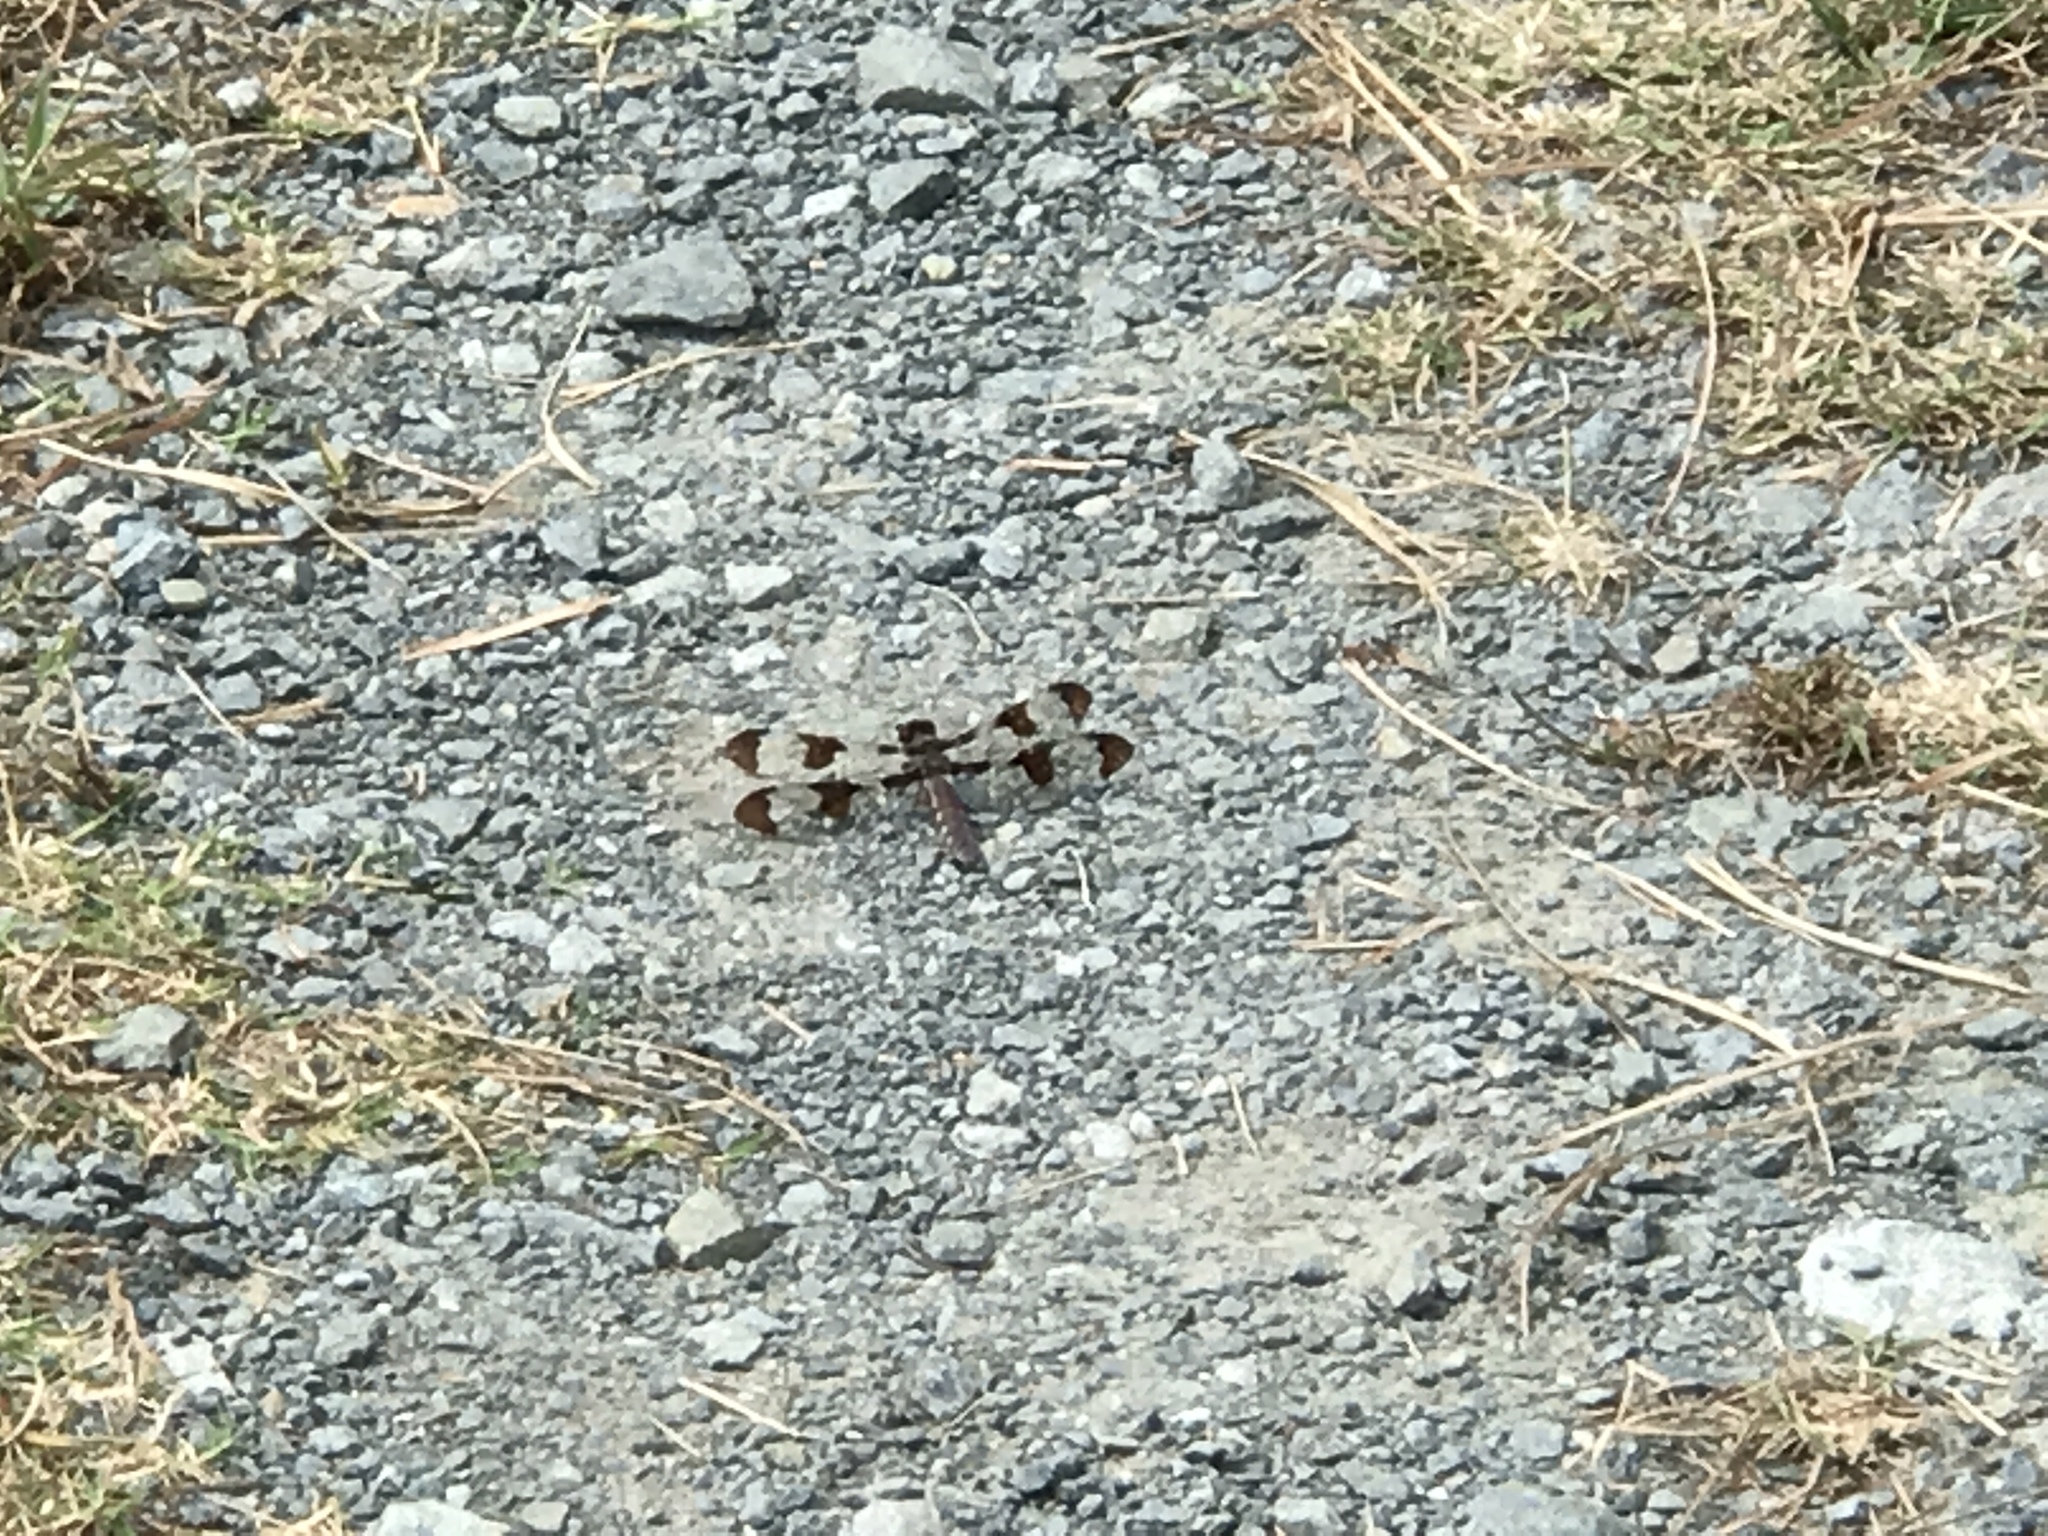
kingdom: Animalia
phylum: Arthropoda
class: Insecta
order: Odonata
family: Libellulidae
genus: Plathemis
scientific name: Plathemis lydia
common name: Common whitetail
